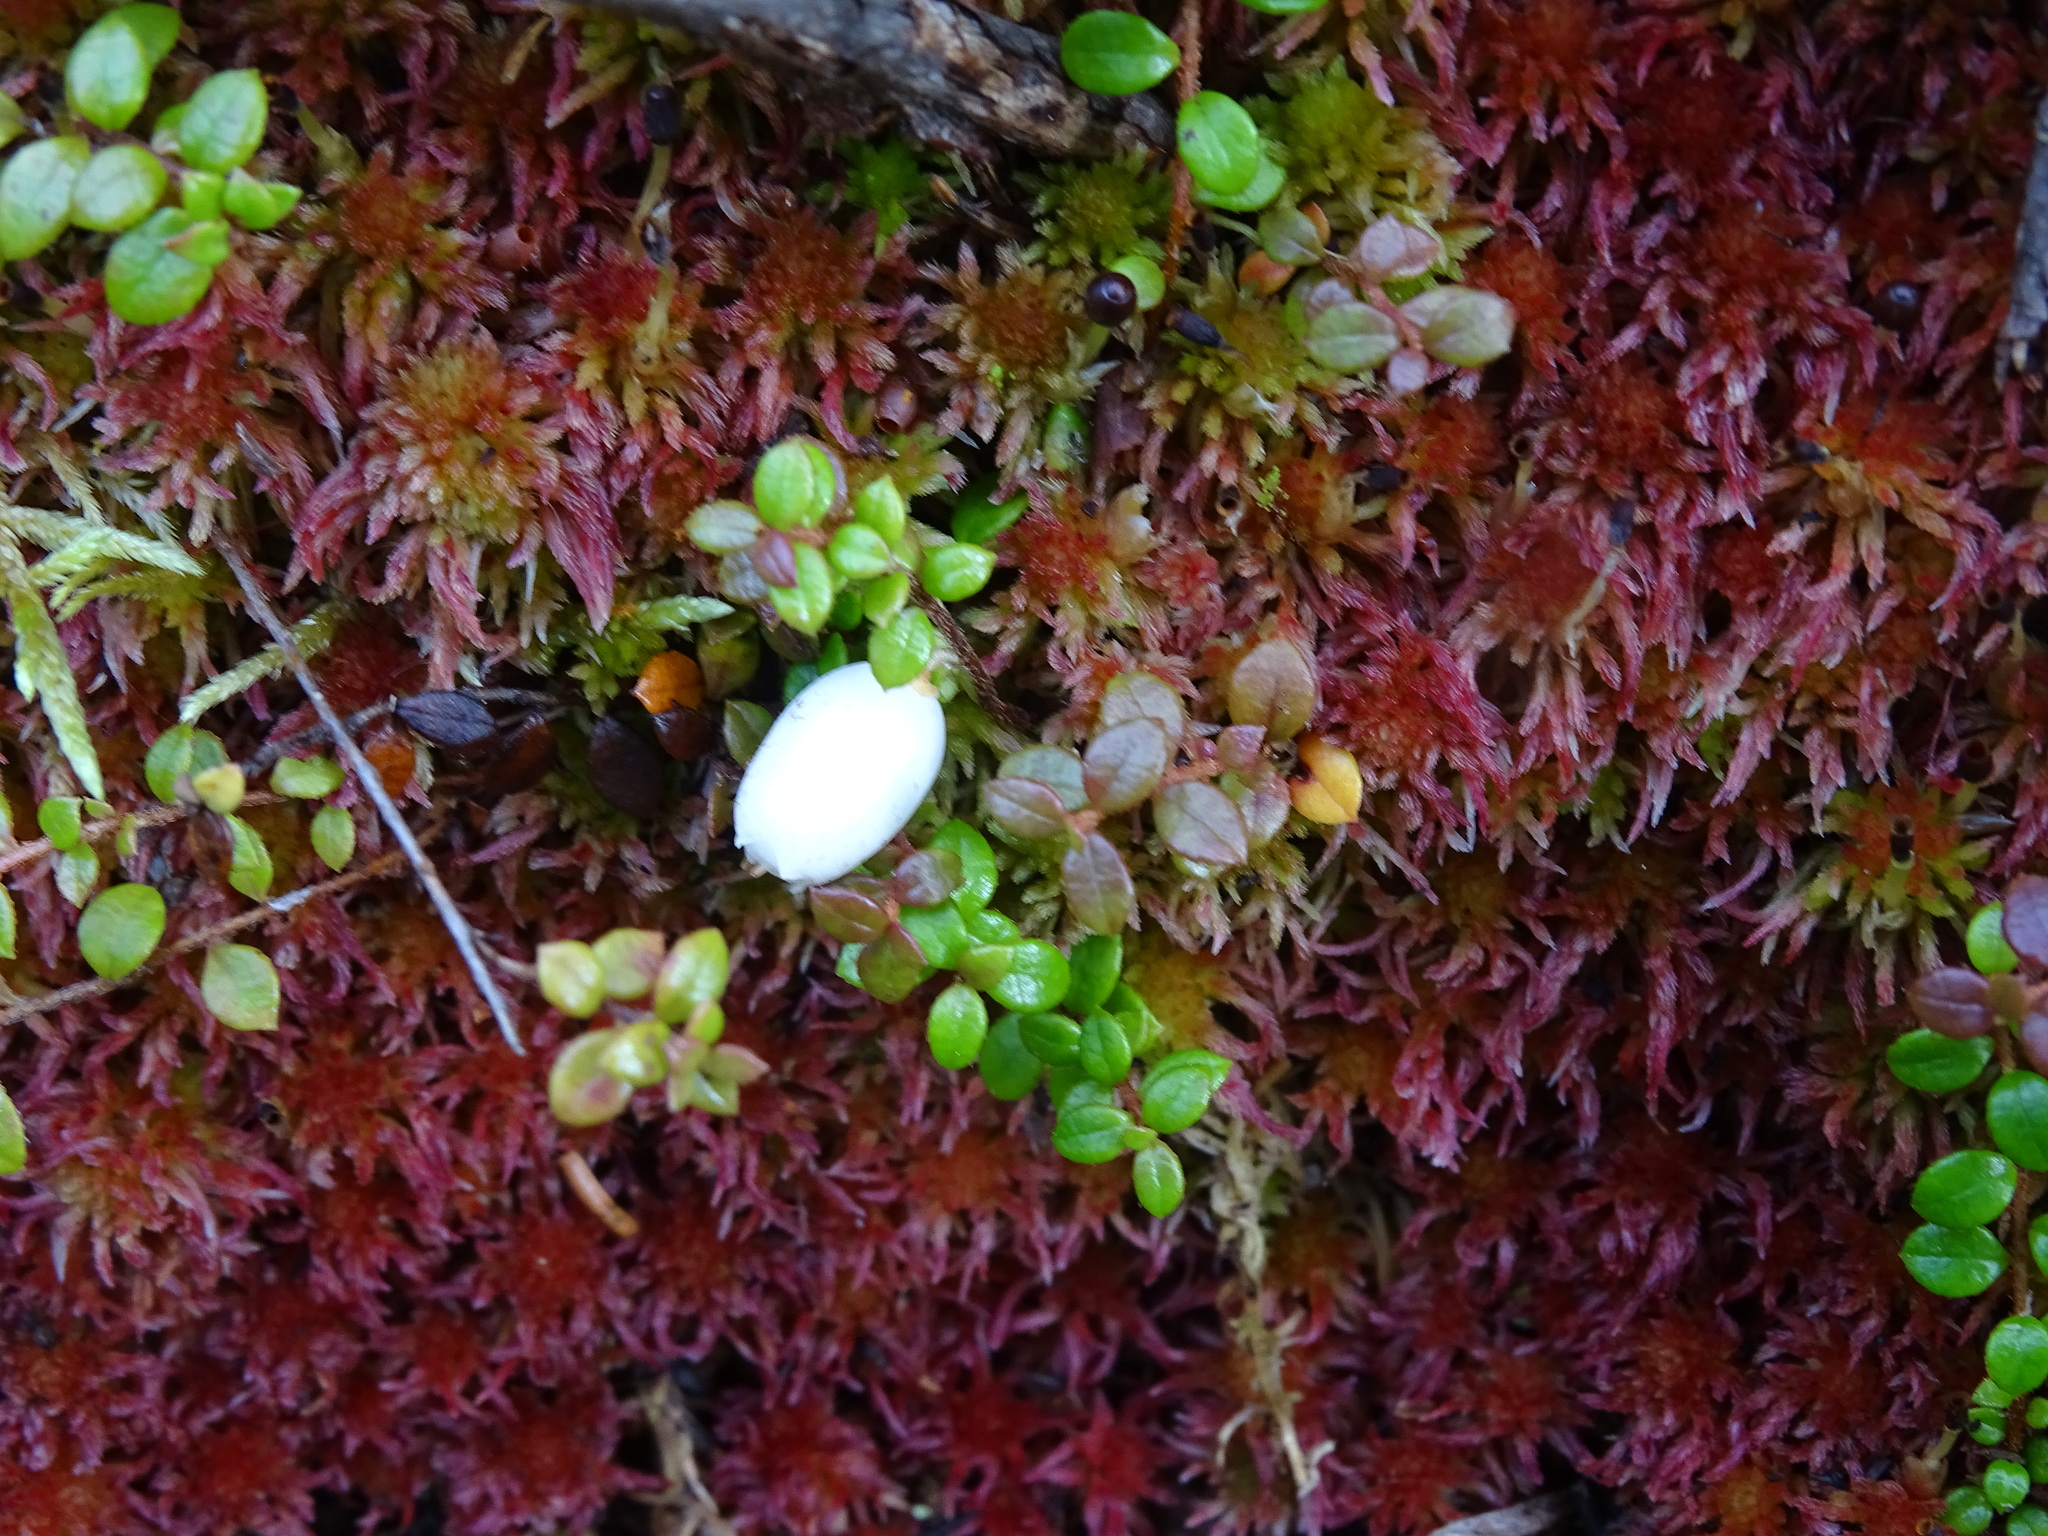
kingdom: Plantae
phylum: Tracheophyta
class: Magnoliopsida
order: Ericales
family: Ericaceae
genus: Gaultheria
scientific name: Gaultheria hispidula
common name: Cancer wintergreen
